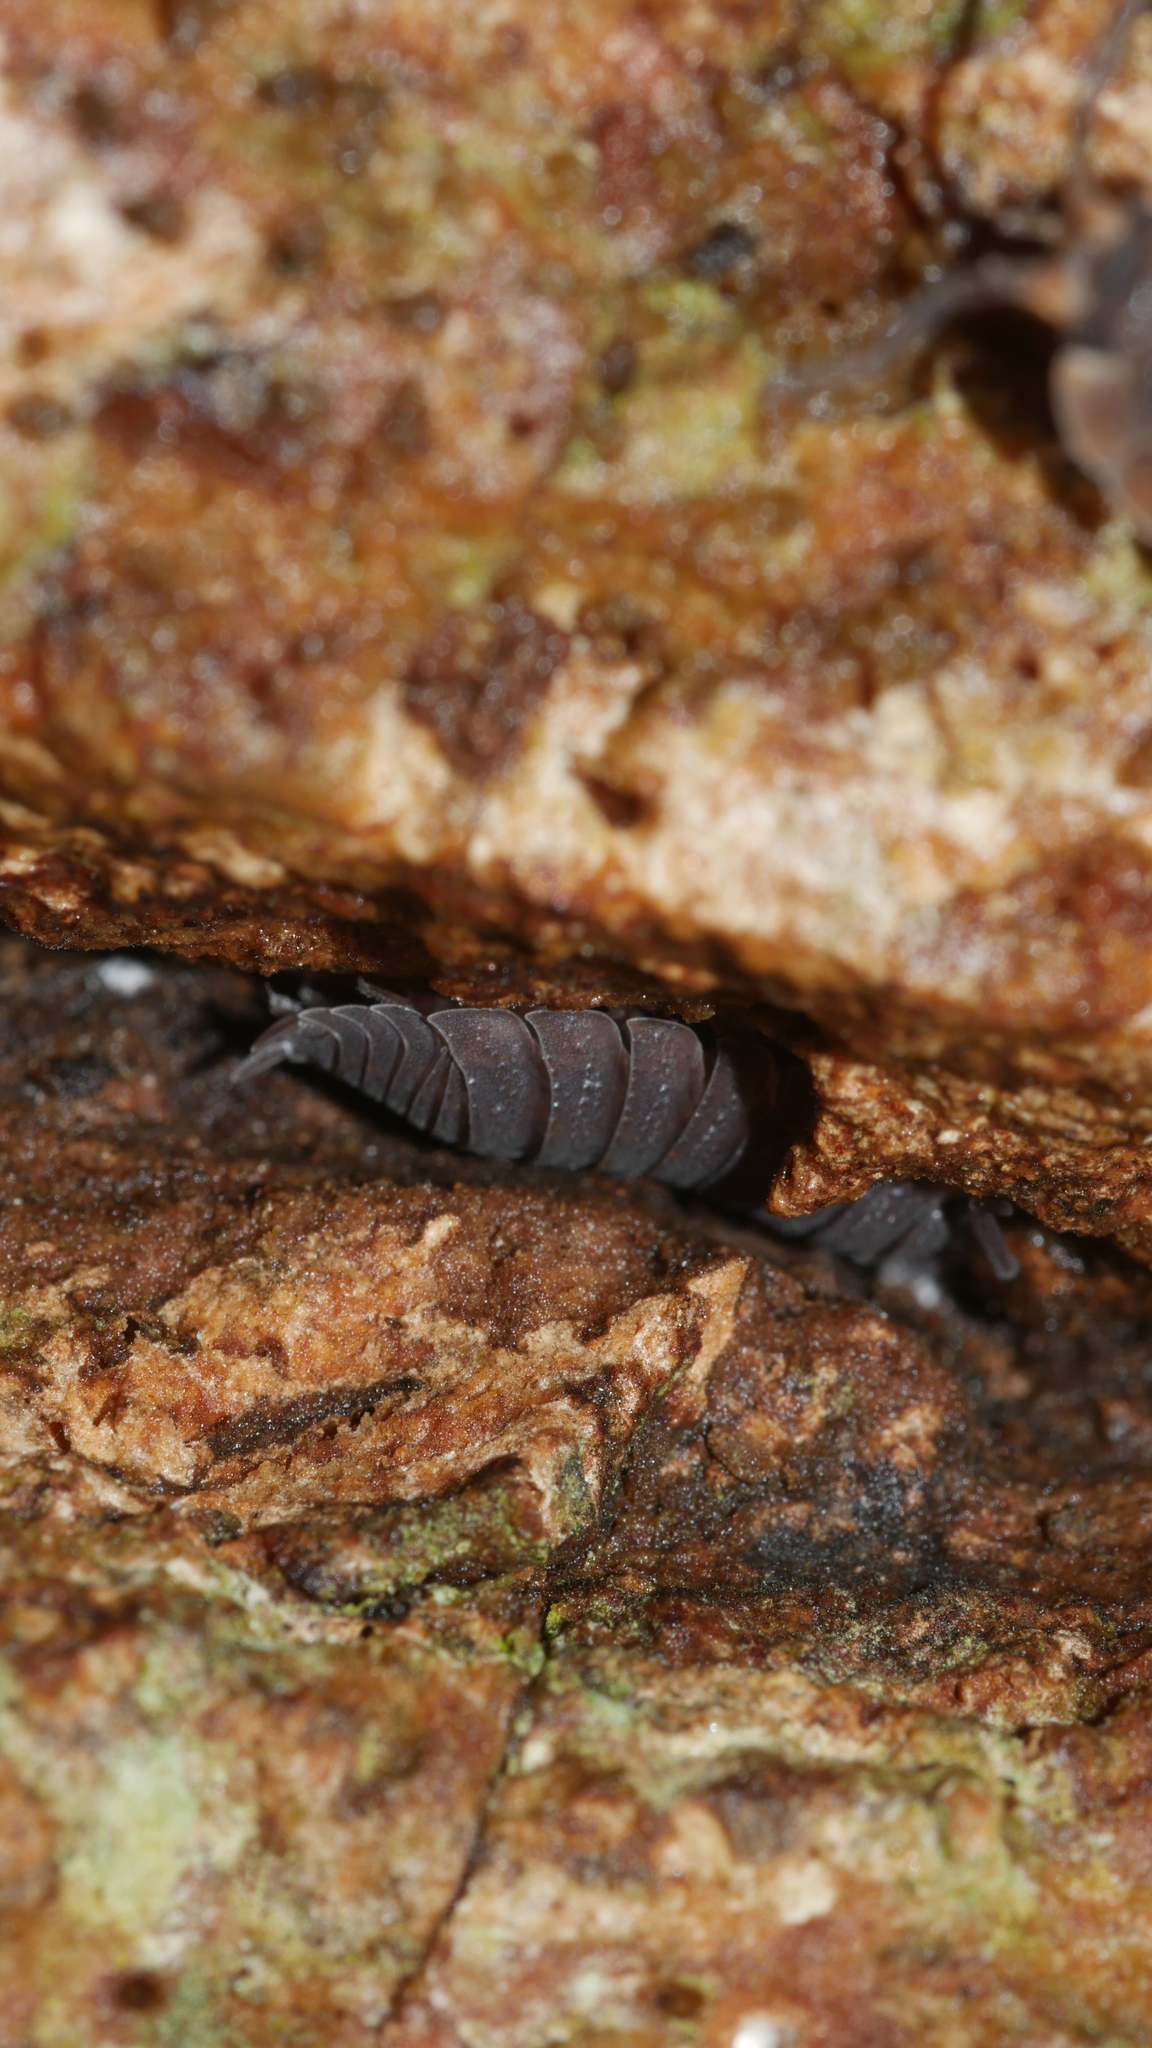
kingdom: Animalia
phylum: Arthropoda
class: Malacostraca
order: Isopoda
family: Porcellionidae
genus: Porcellio
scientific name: Porcellio scaber
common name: Common rough woodlouse
